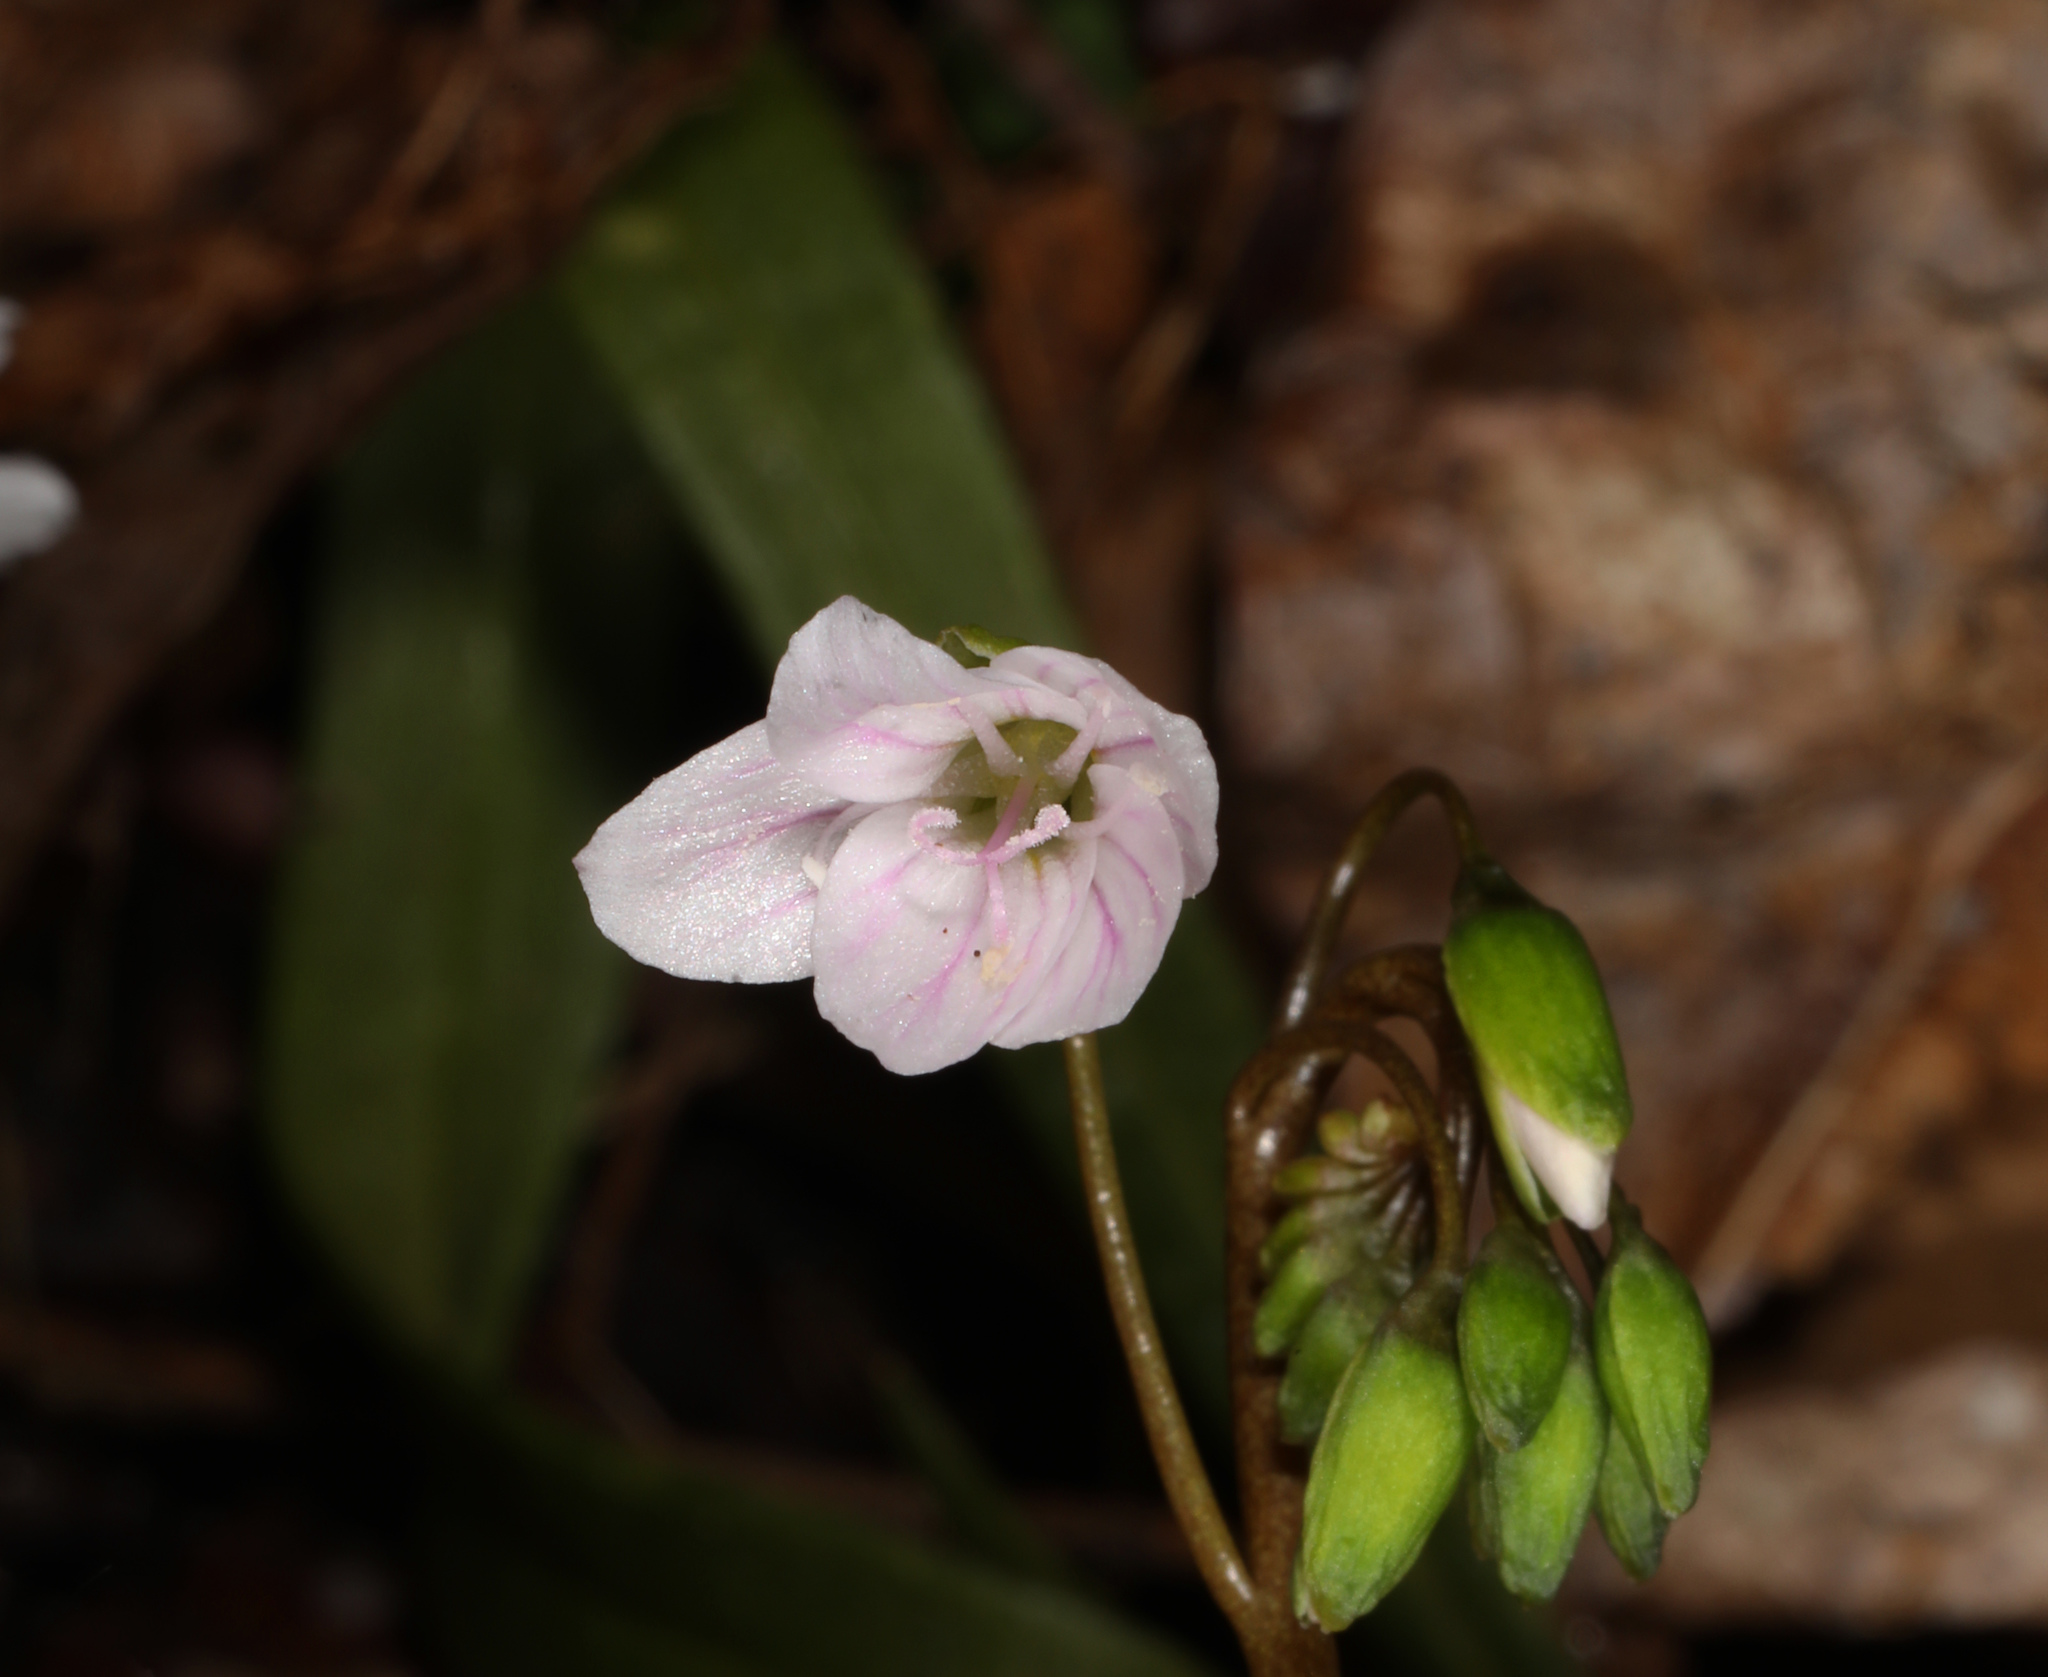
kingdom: Plantae
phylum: Tracheophyta
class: Magnoliopsida
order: Caryophyllales
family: Montiaceae
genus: Claytonia
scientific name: Claytonia virginica
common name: Virginia springbeauty
